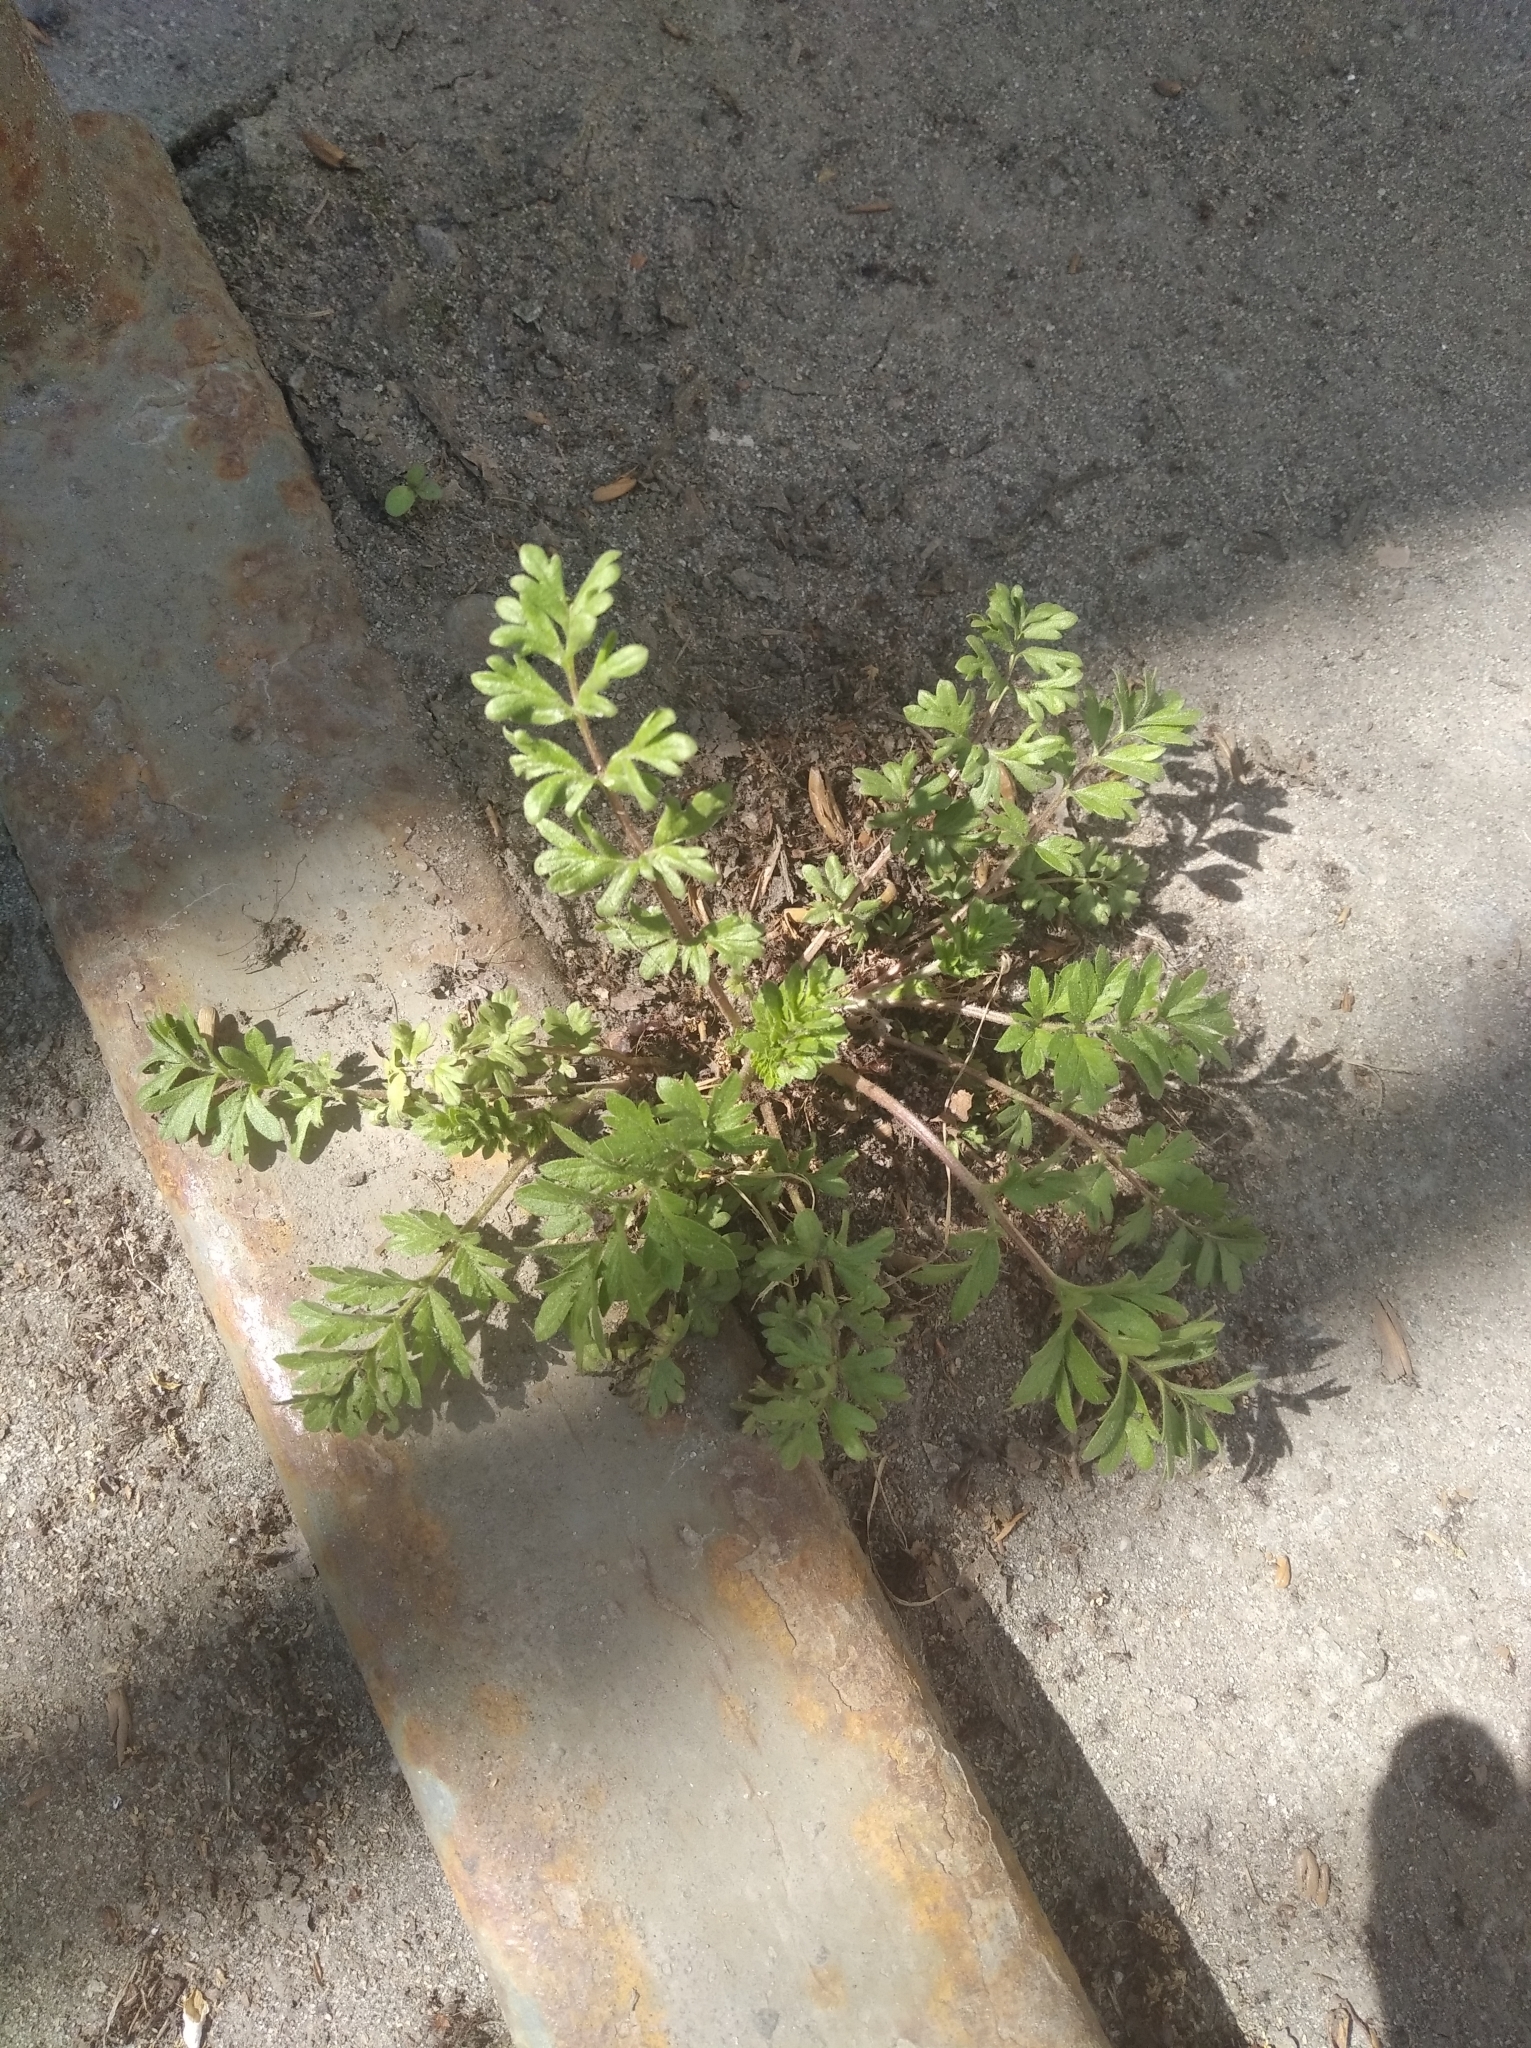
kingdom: Plantae
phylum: Tracheophyta
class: Magnoliopsida
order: Rosales
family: Rosaceae
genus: Potentilla
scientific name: Potentilla supina
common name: Prostrate cinquefoil
